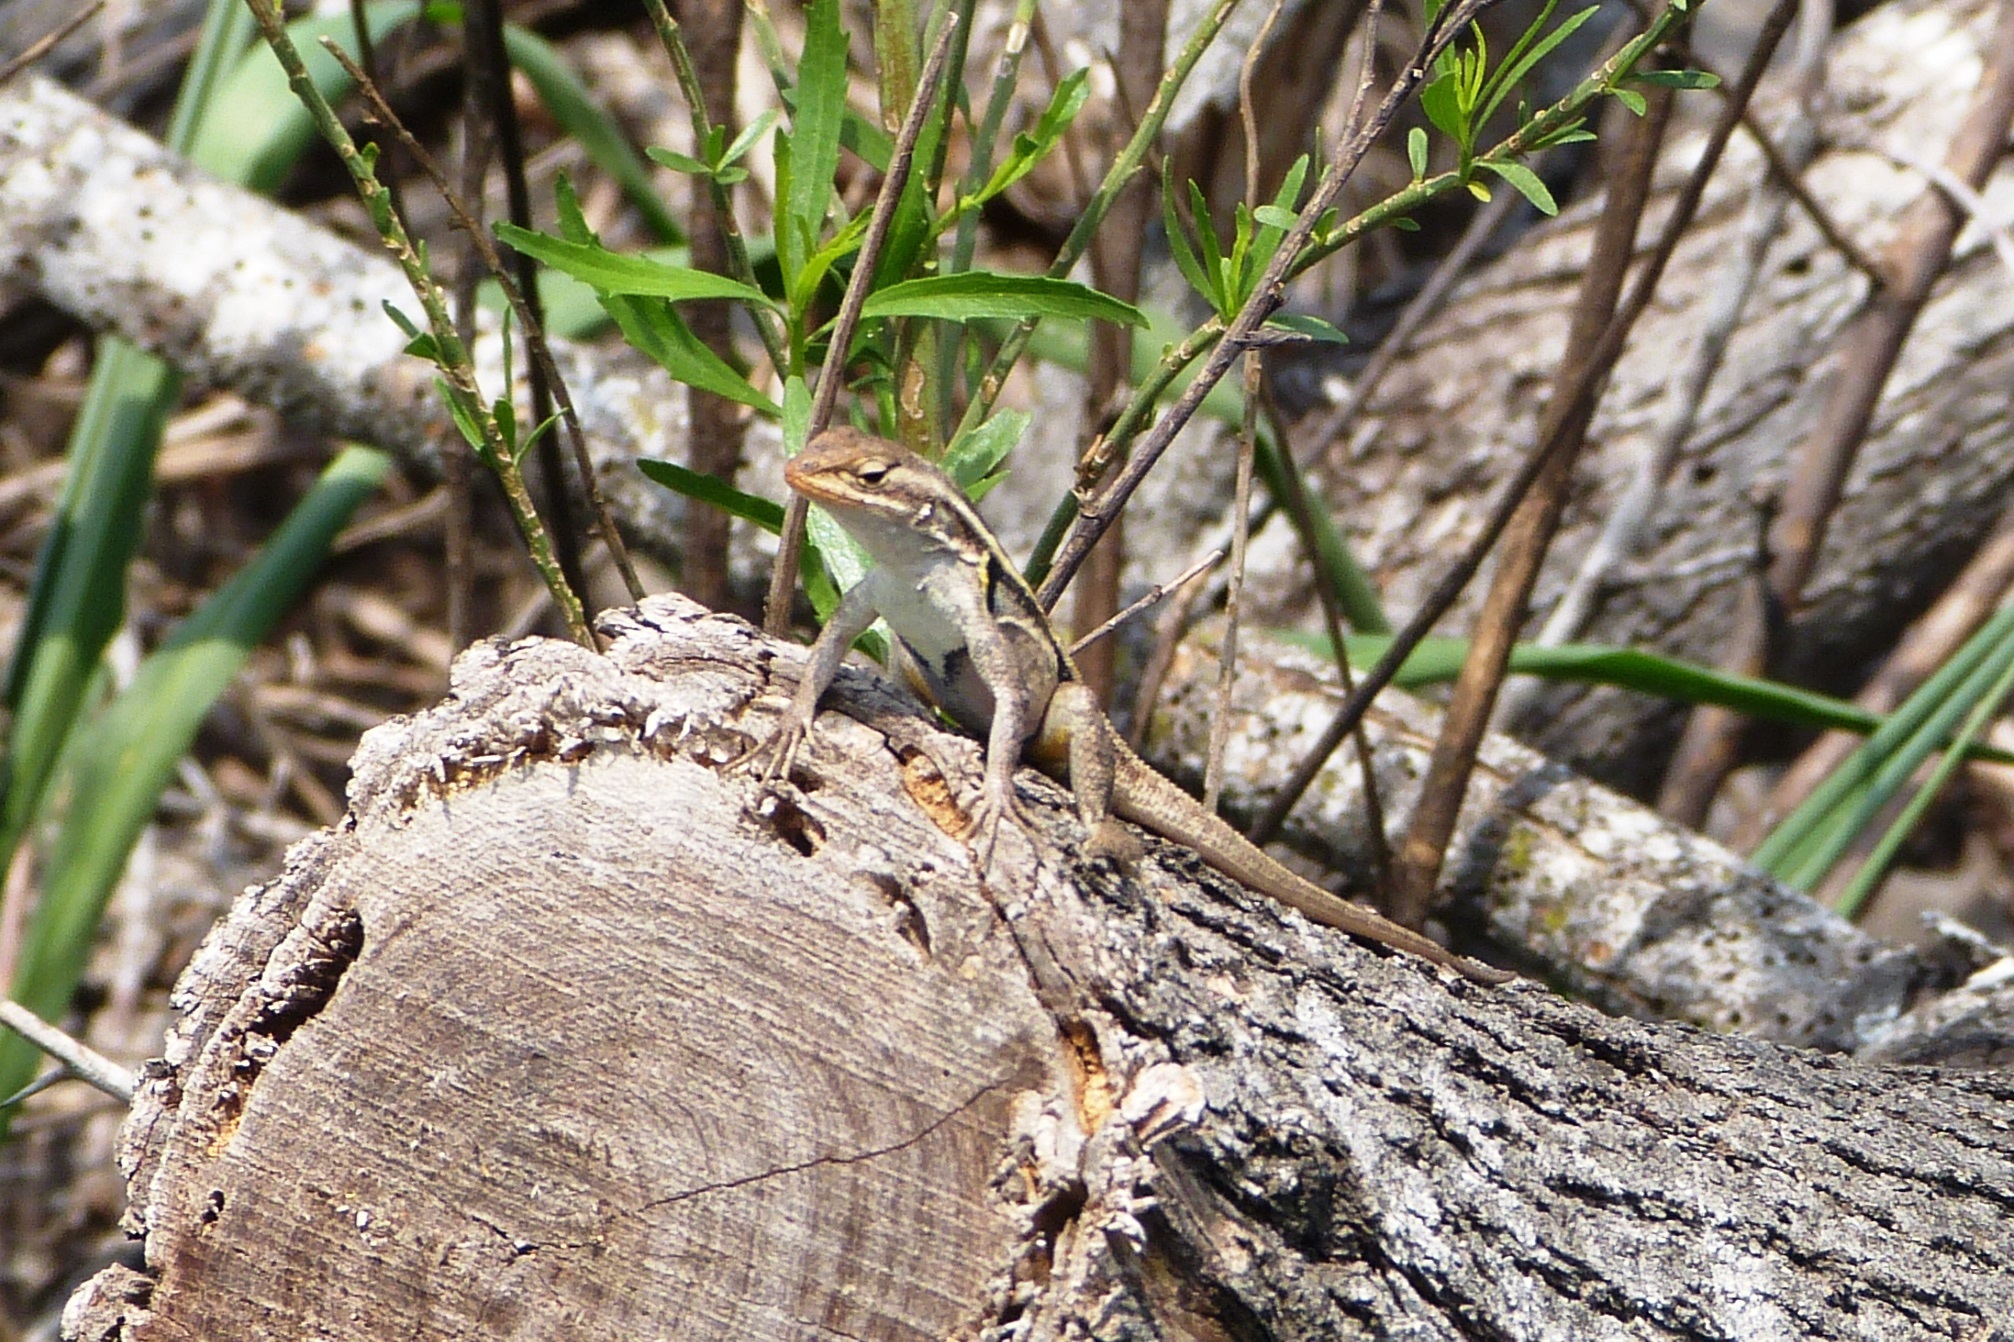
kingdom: Animalia
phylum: Chordata
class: Squamata
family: Phrynosomatidae
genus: Sceloporus
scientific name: Sceloporus variabilis
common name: Rosebelly lizard
